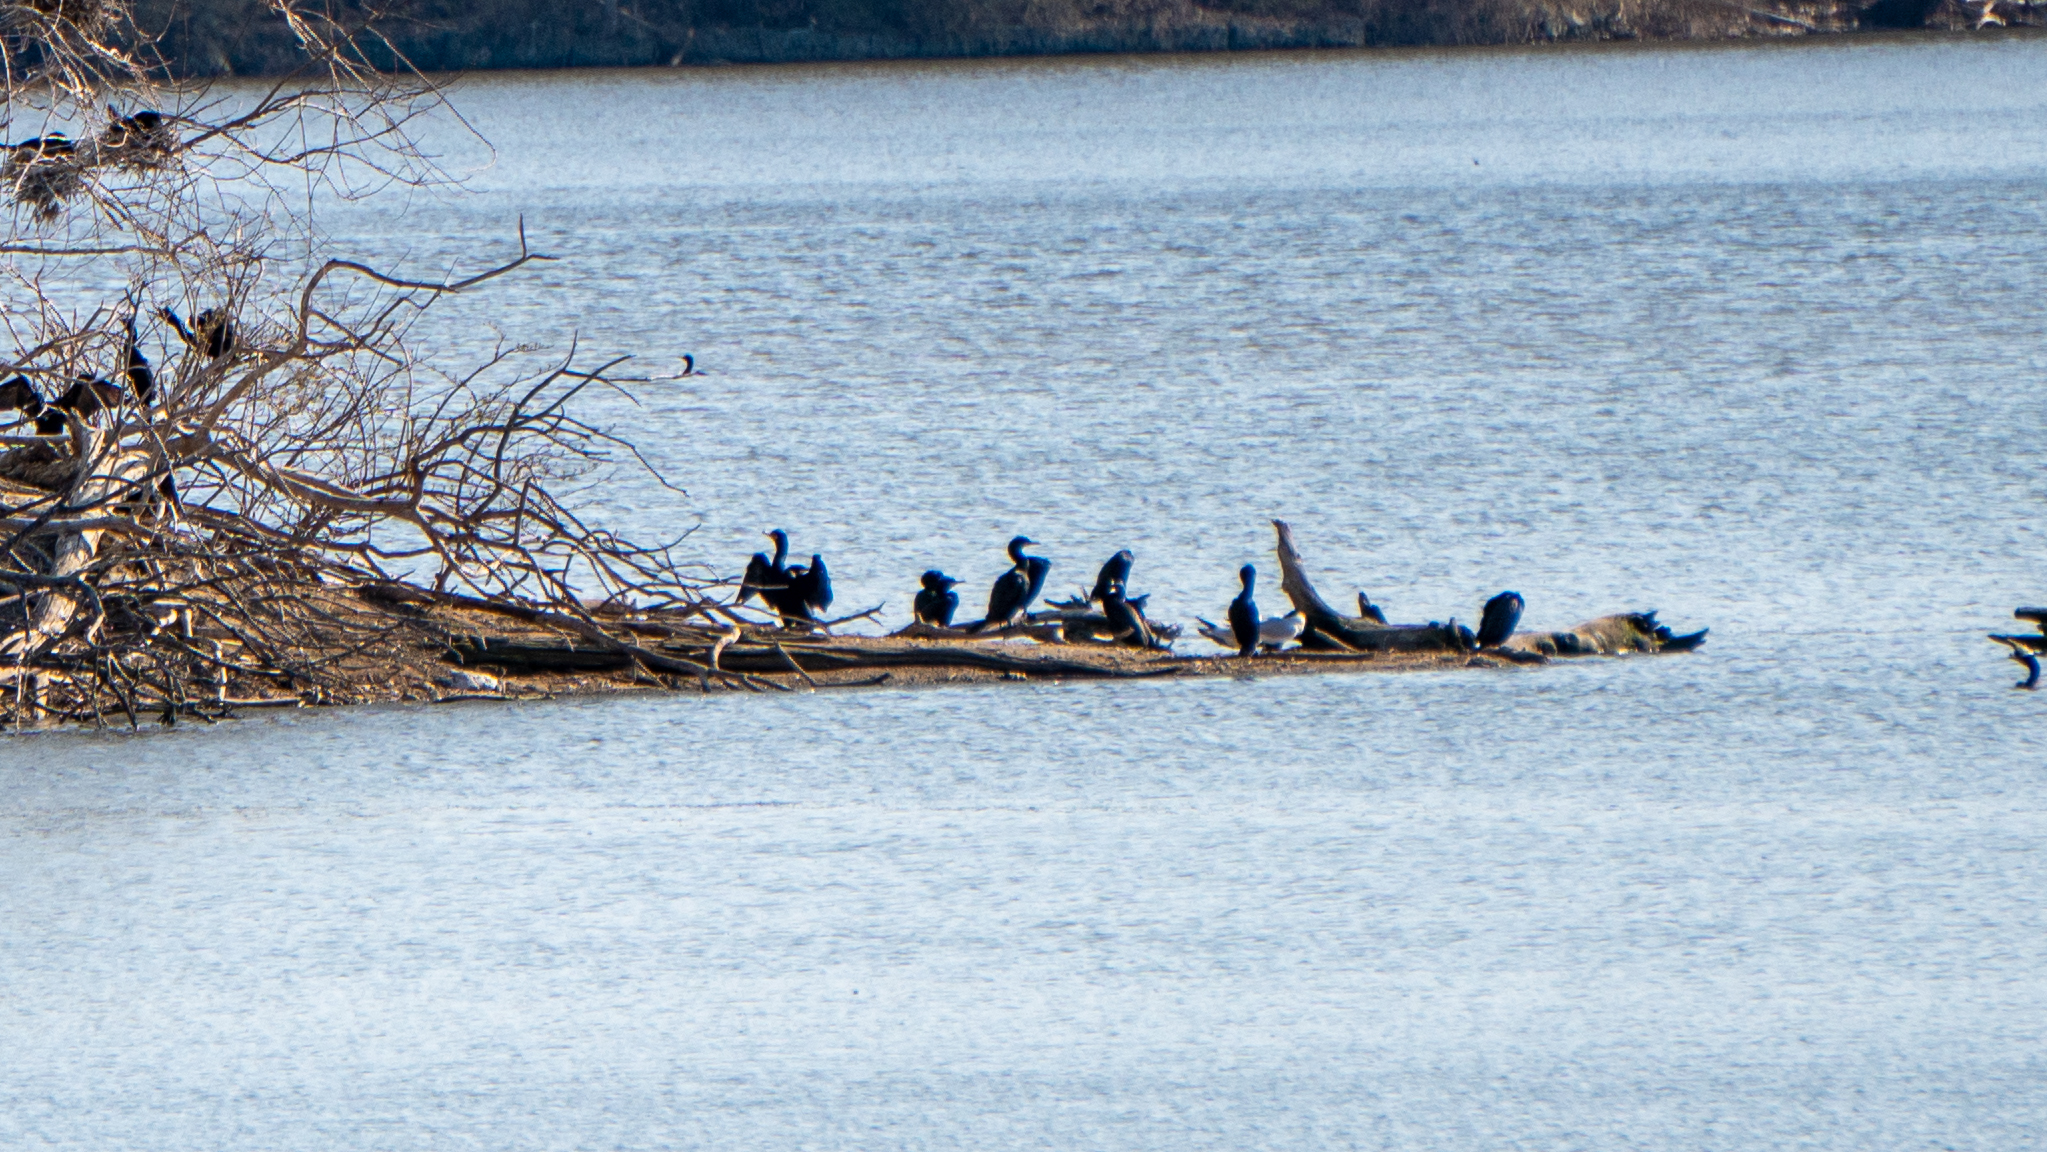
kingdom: Animalia
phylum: Chordata
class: Aves
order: Suliformes
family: Phalacrocoracidae
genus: Phalacrocorax
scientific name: Phalacrocorax auritus
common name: Double-crested cormorant
